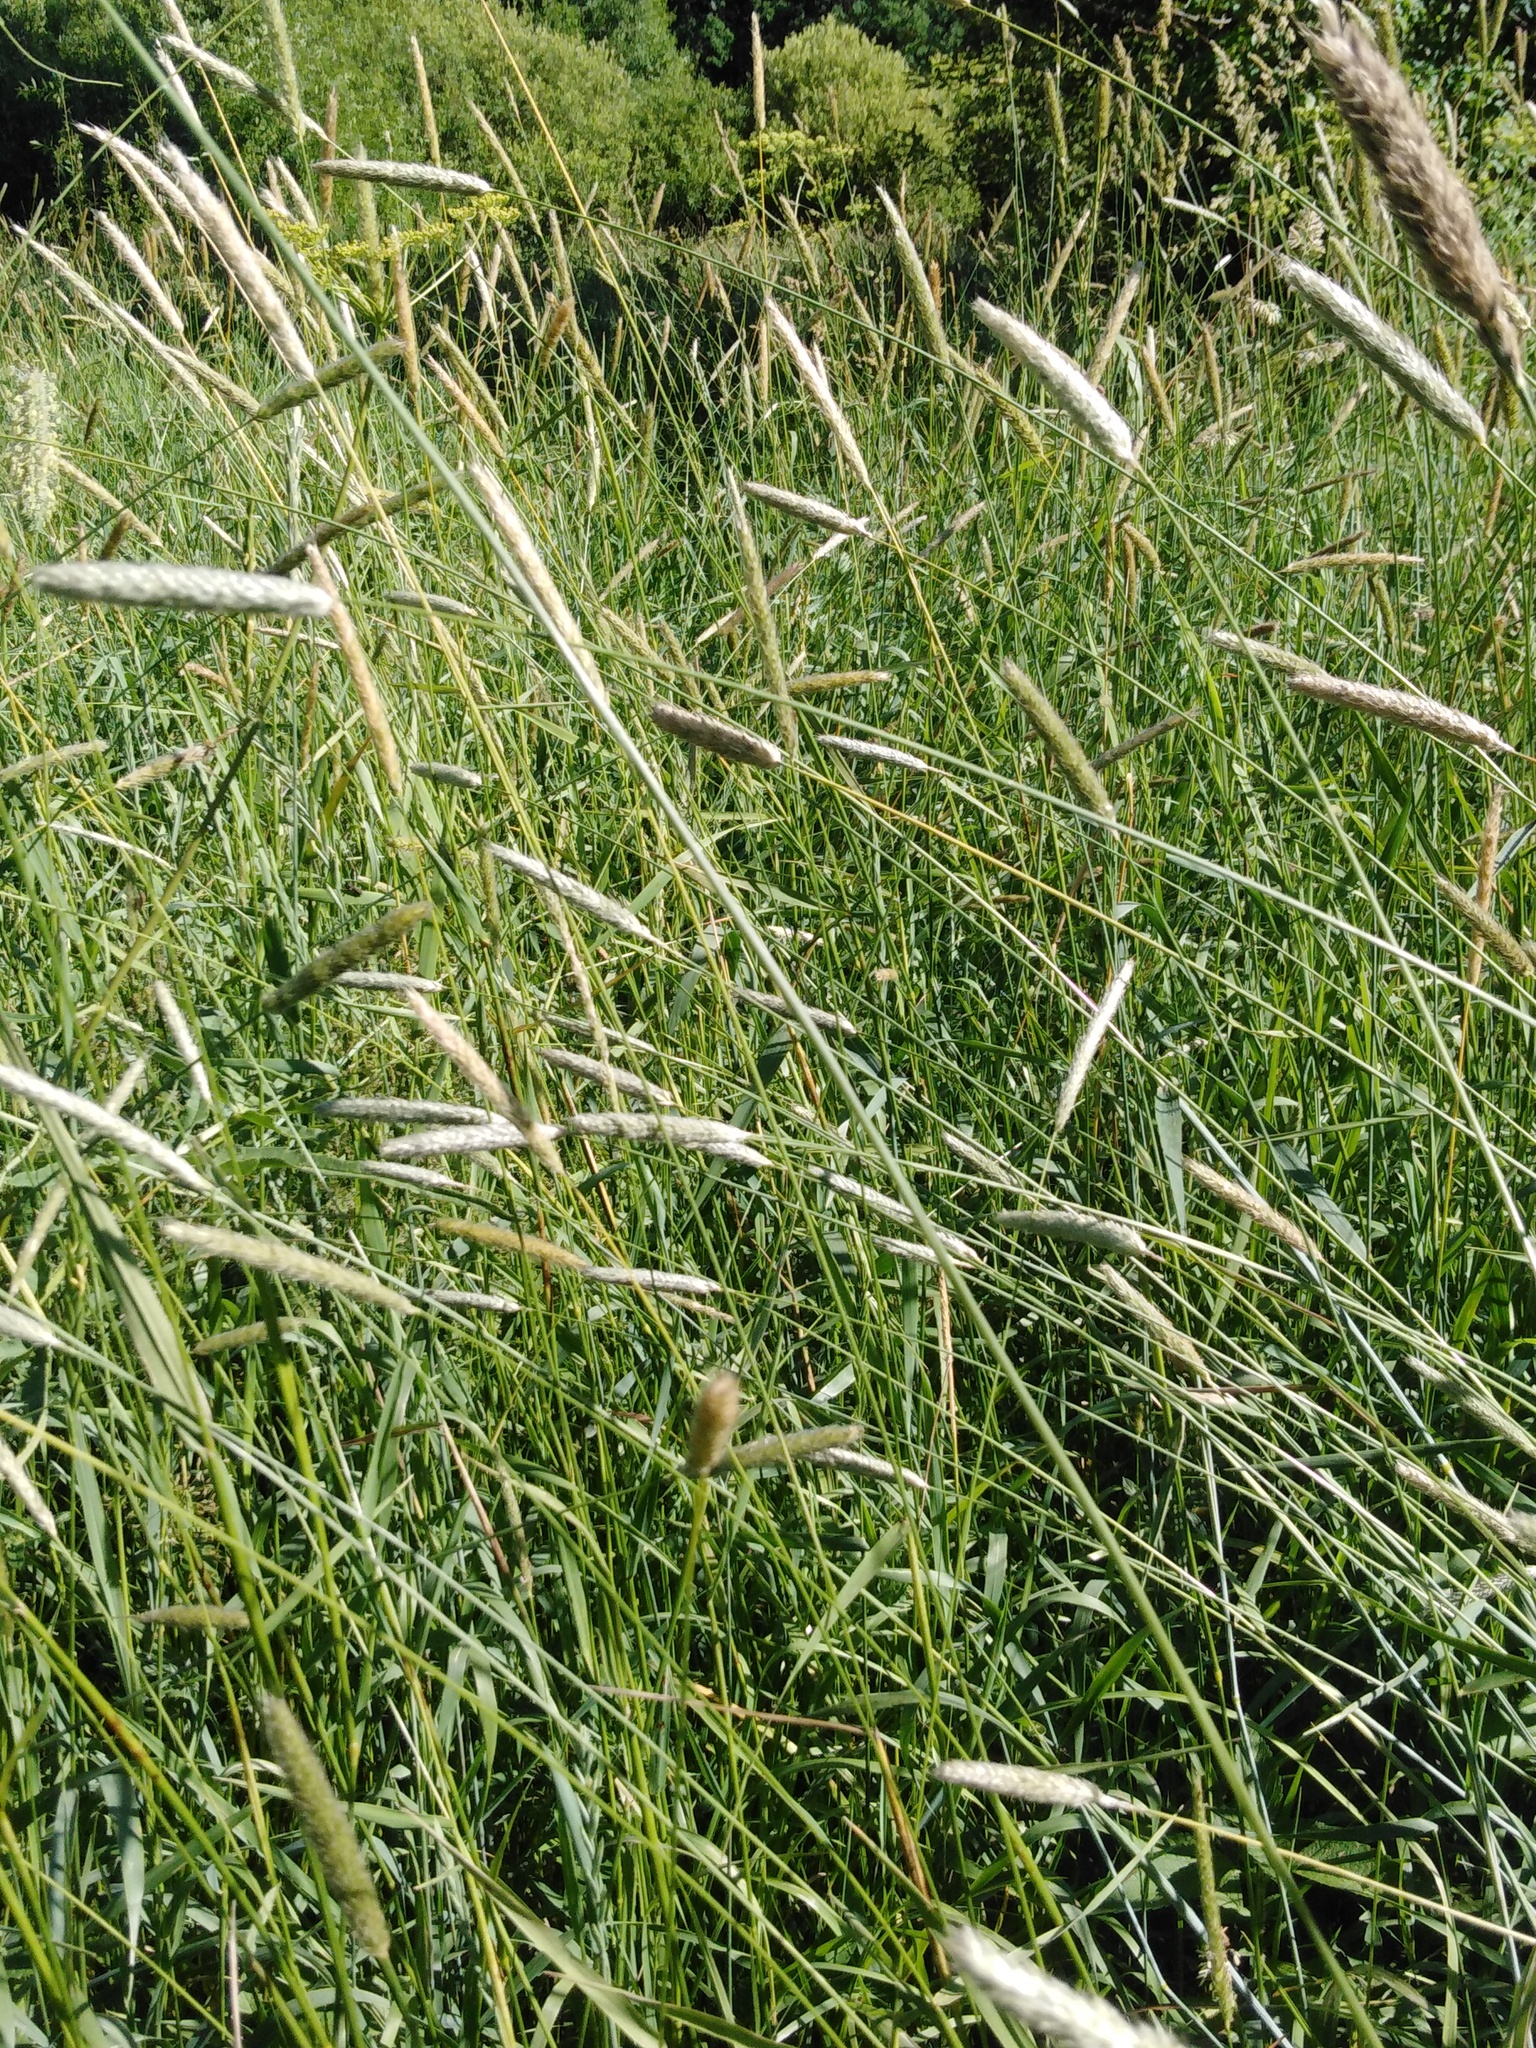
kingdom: Plantae
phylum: Tracheophyta
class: Liliopsida
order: Poales
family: Poaceae
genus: Alopecurus
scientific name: Alopecurus pratensis
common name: Meadow foxtail
